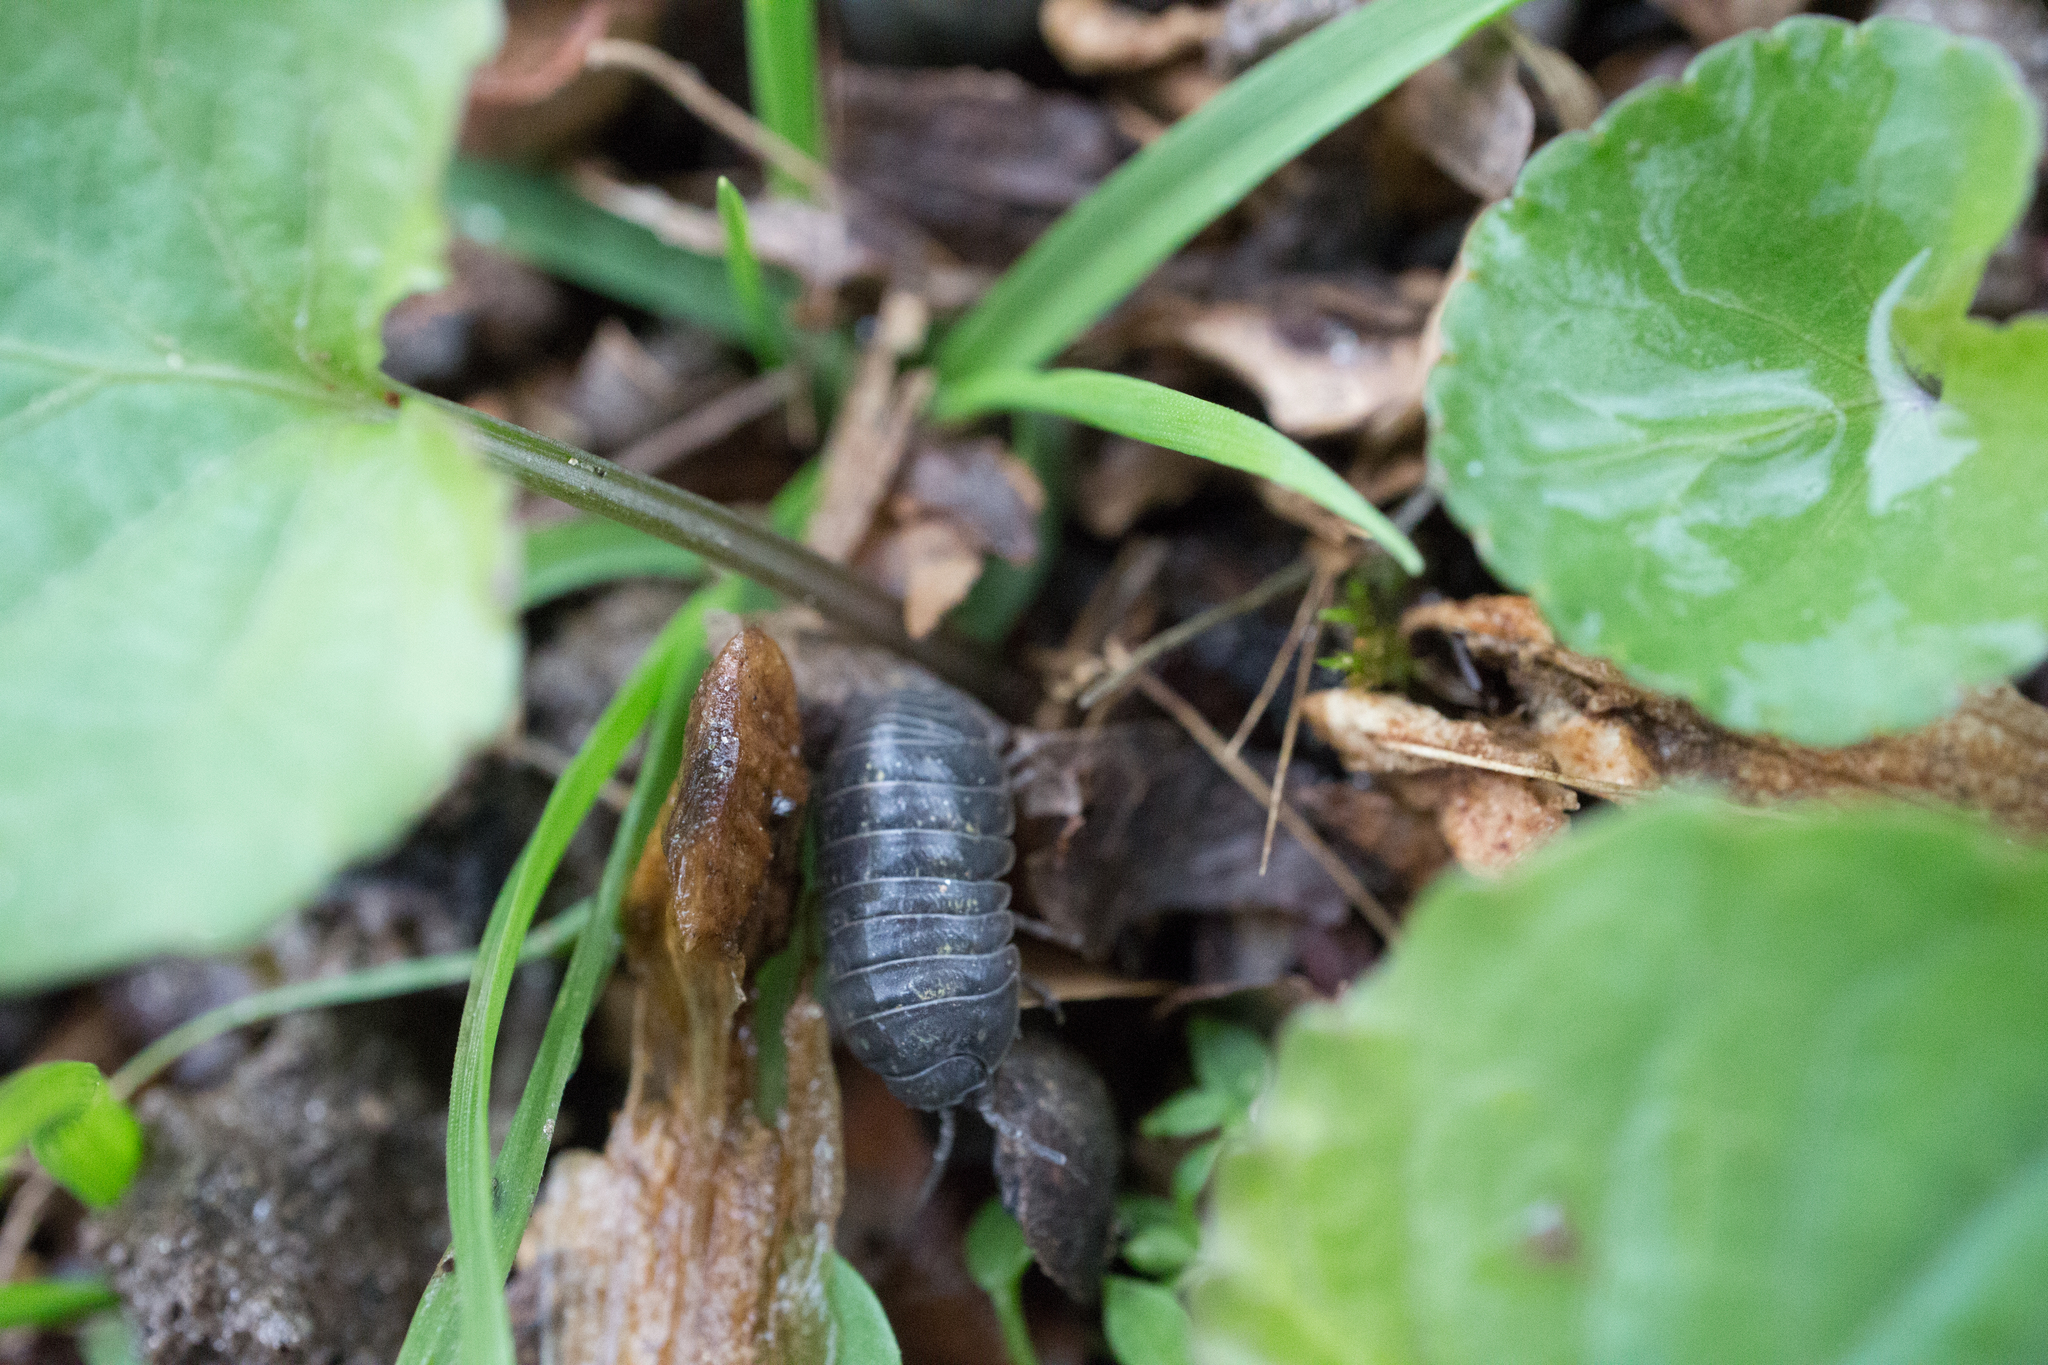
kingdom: Animalia
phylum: Arthropoda
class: Malacostraca
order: Isopoda
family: Armadillidiidae
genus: Armadillidium
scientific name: Armadillidium vulgare
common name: Common pill woodlouse
